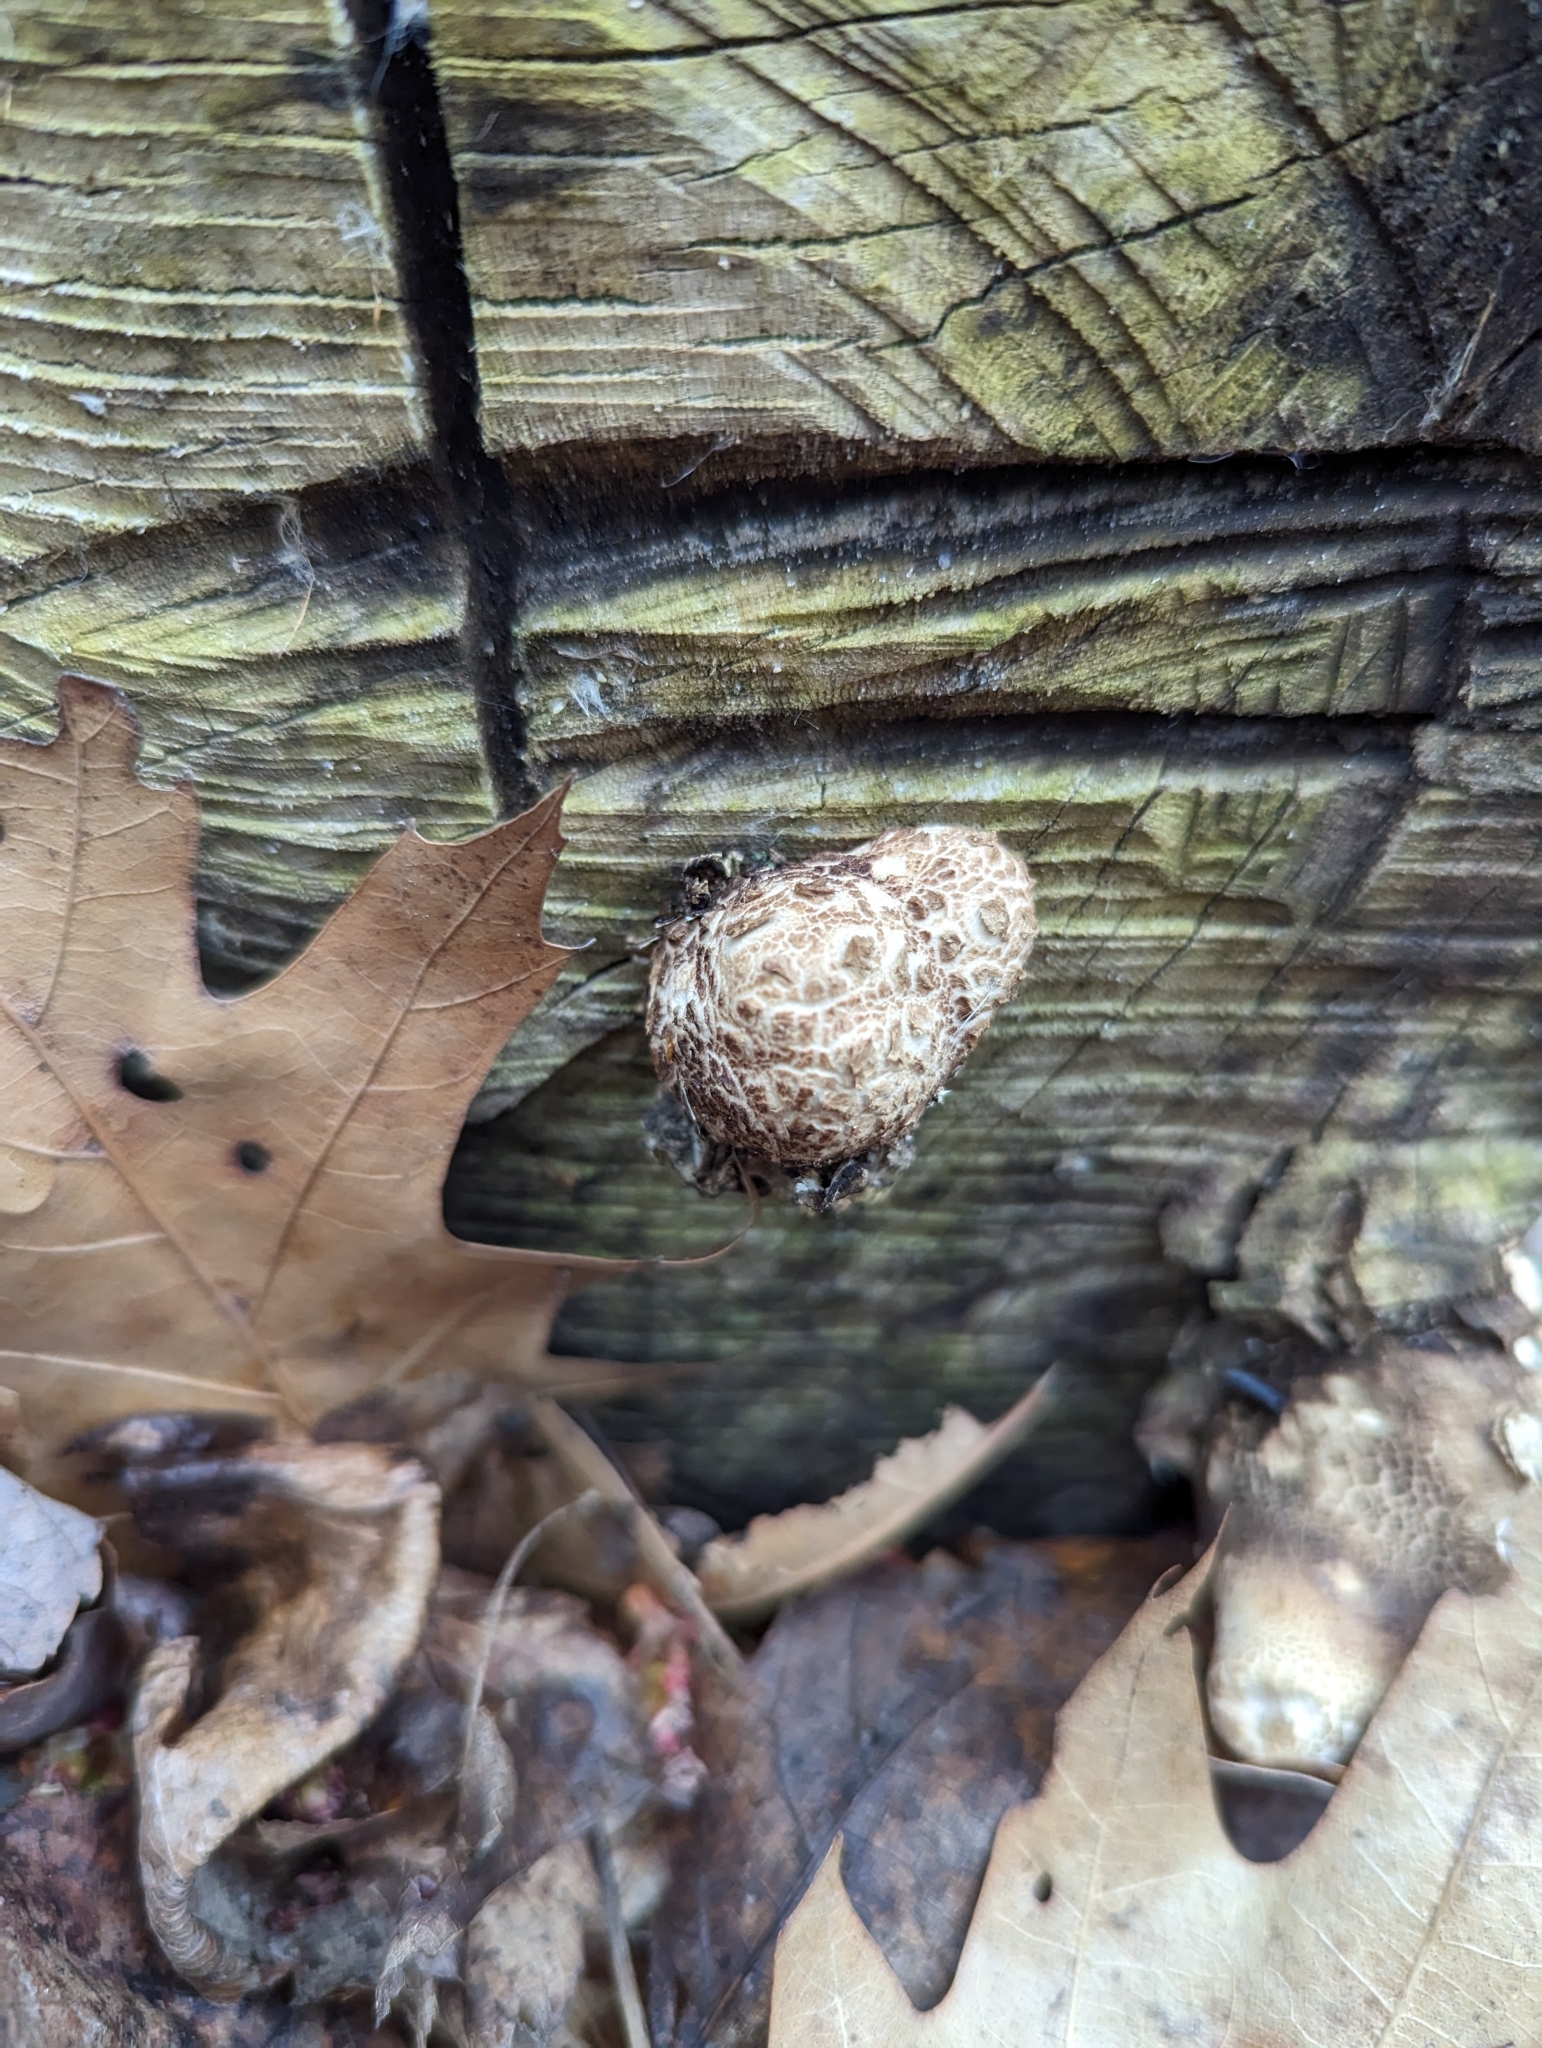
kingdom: Fungi
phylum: Basidiomycota
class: Agaricomycetes
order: Polyporales
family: Polyporaceae
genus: Cerioporus
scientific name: Cerioporus squamosus
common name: Dryad's saddle
